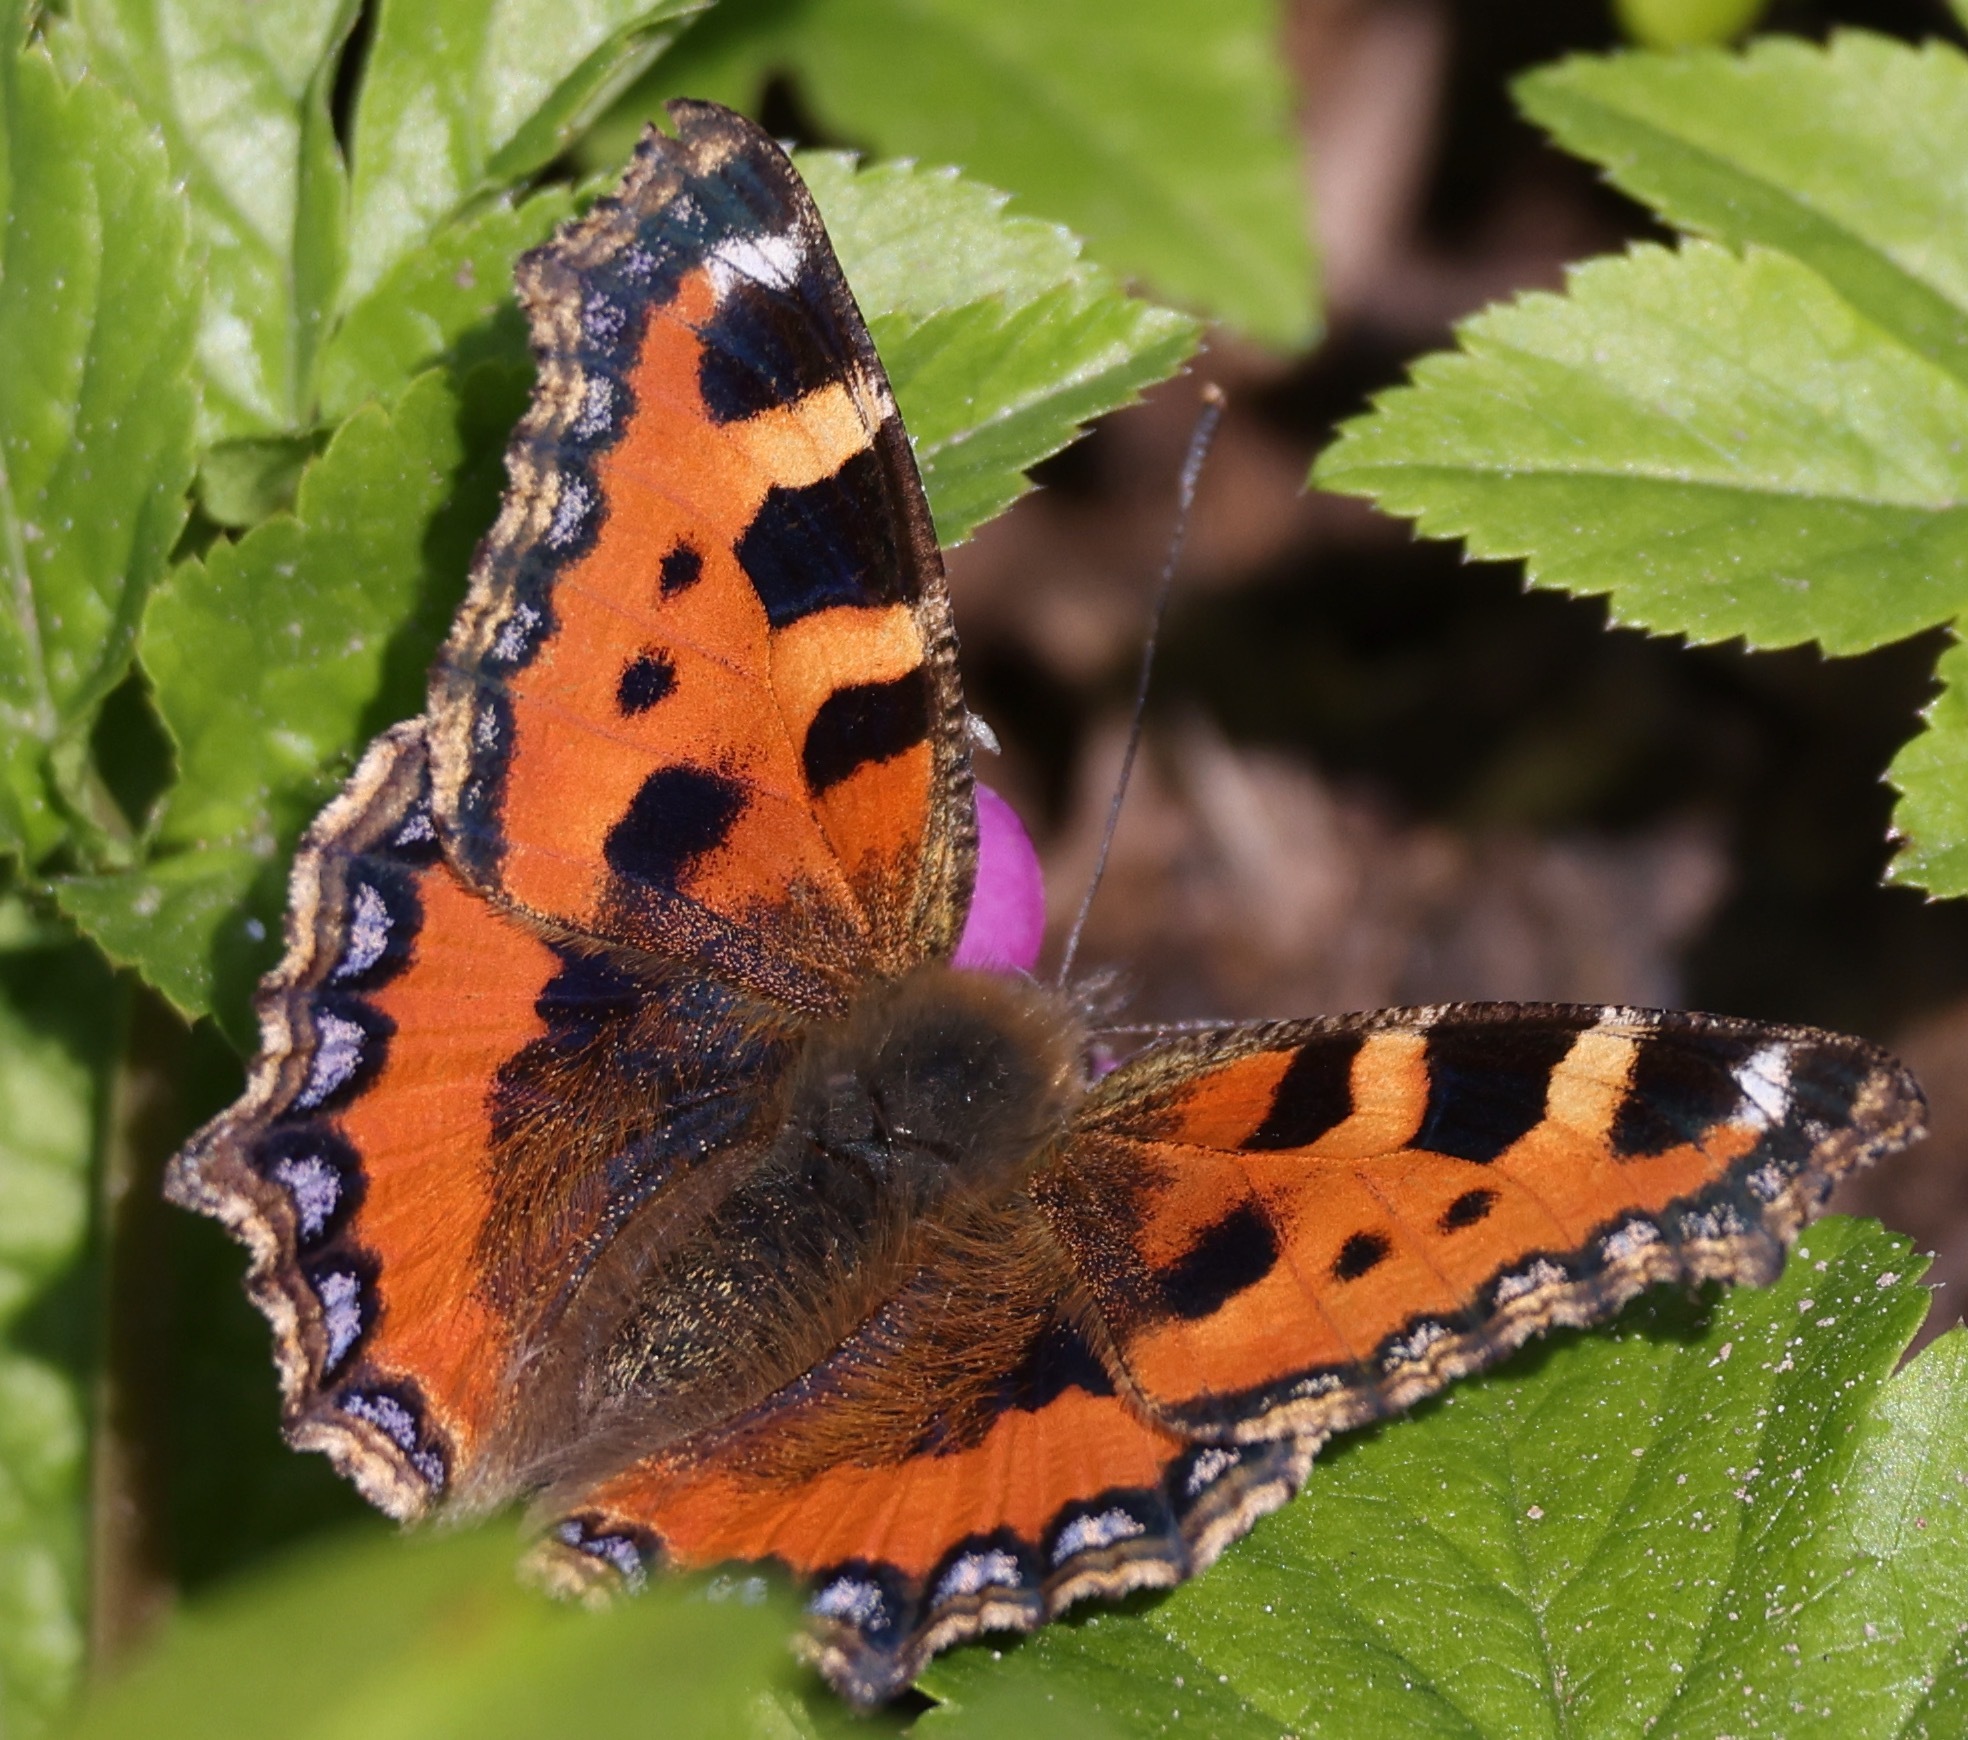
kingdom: Animalia
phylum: Arthropoda
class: Insecta
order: Lepidoptera
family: Nymphalidae
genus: Aglais
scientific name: Aglais urticae
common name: Small tortoiseshell
